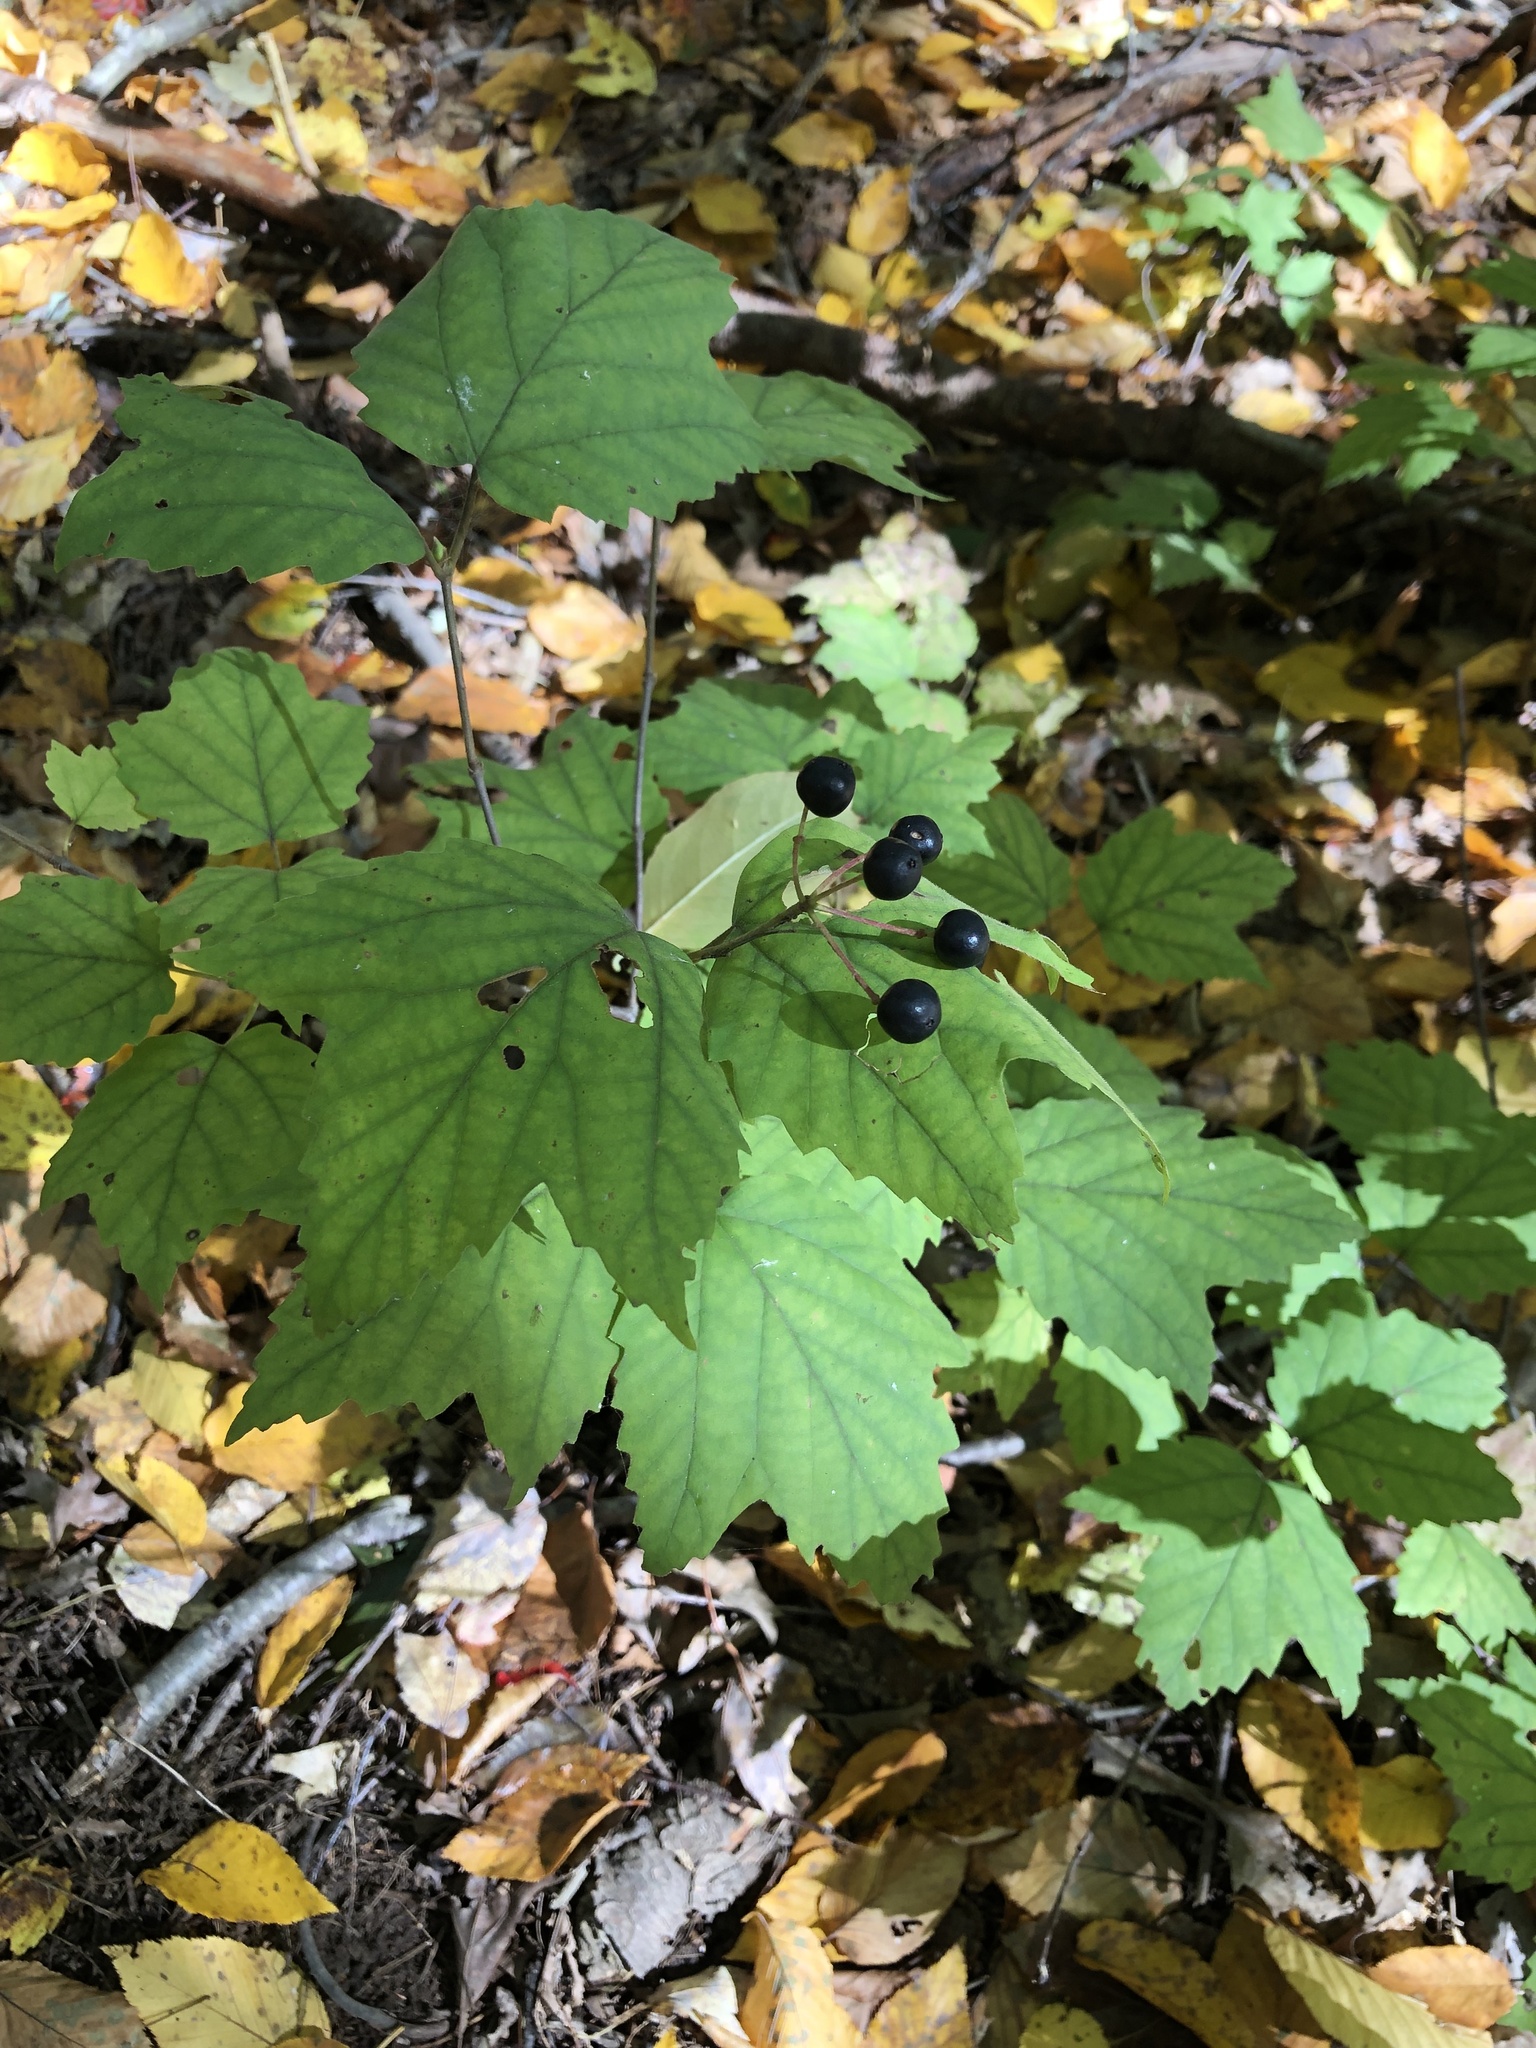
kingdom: Plantae
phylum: Tracheophyta
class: Magnoliopsida
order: Dipsacales
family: Viburnaceae
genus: Viburnum
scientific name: Viburnum acerifolium
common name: Dockmackie
